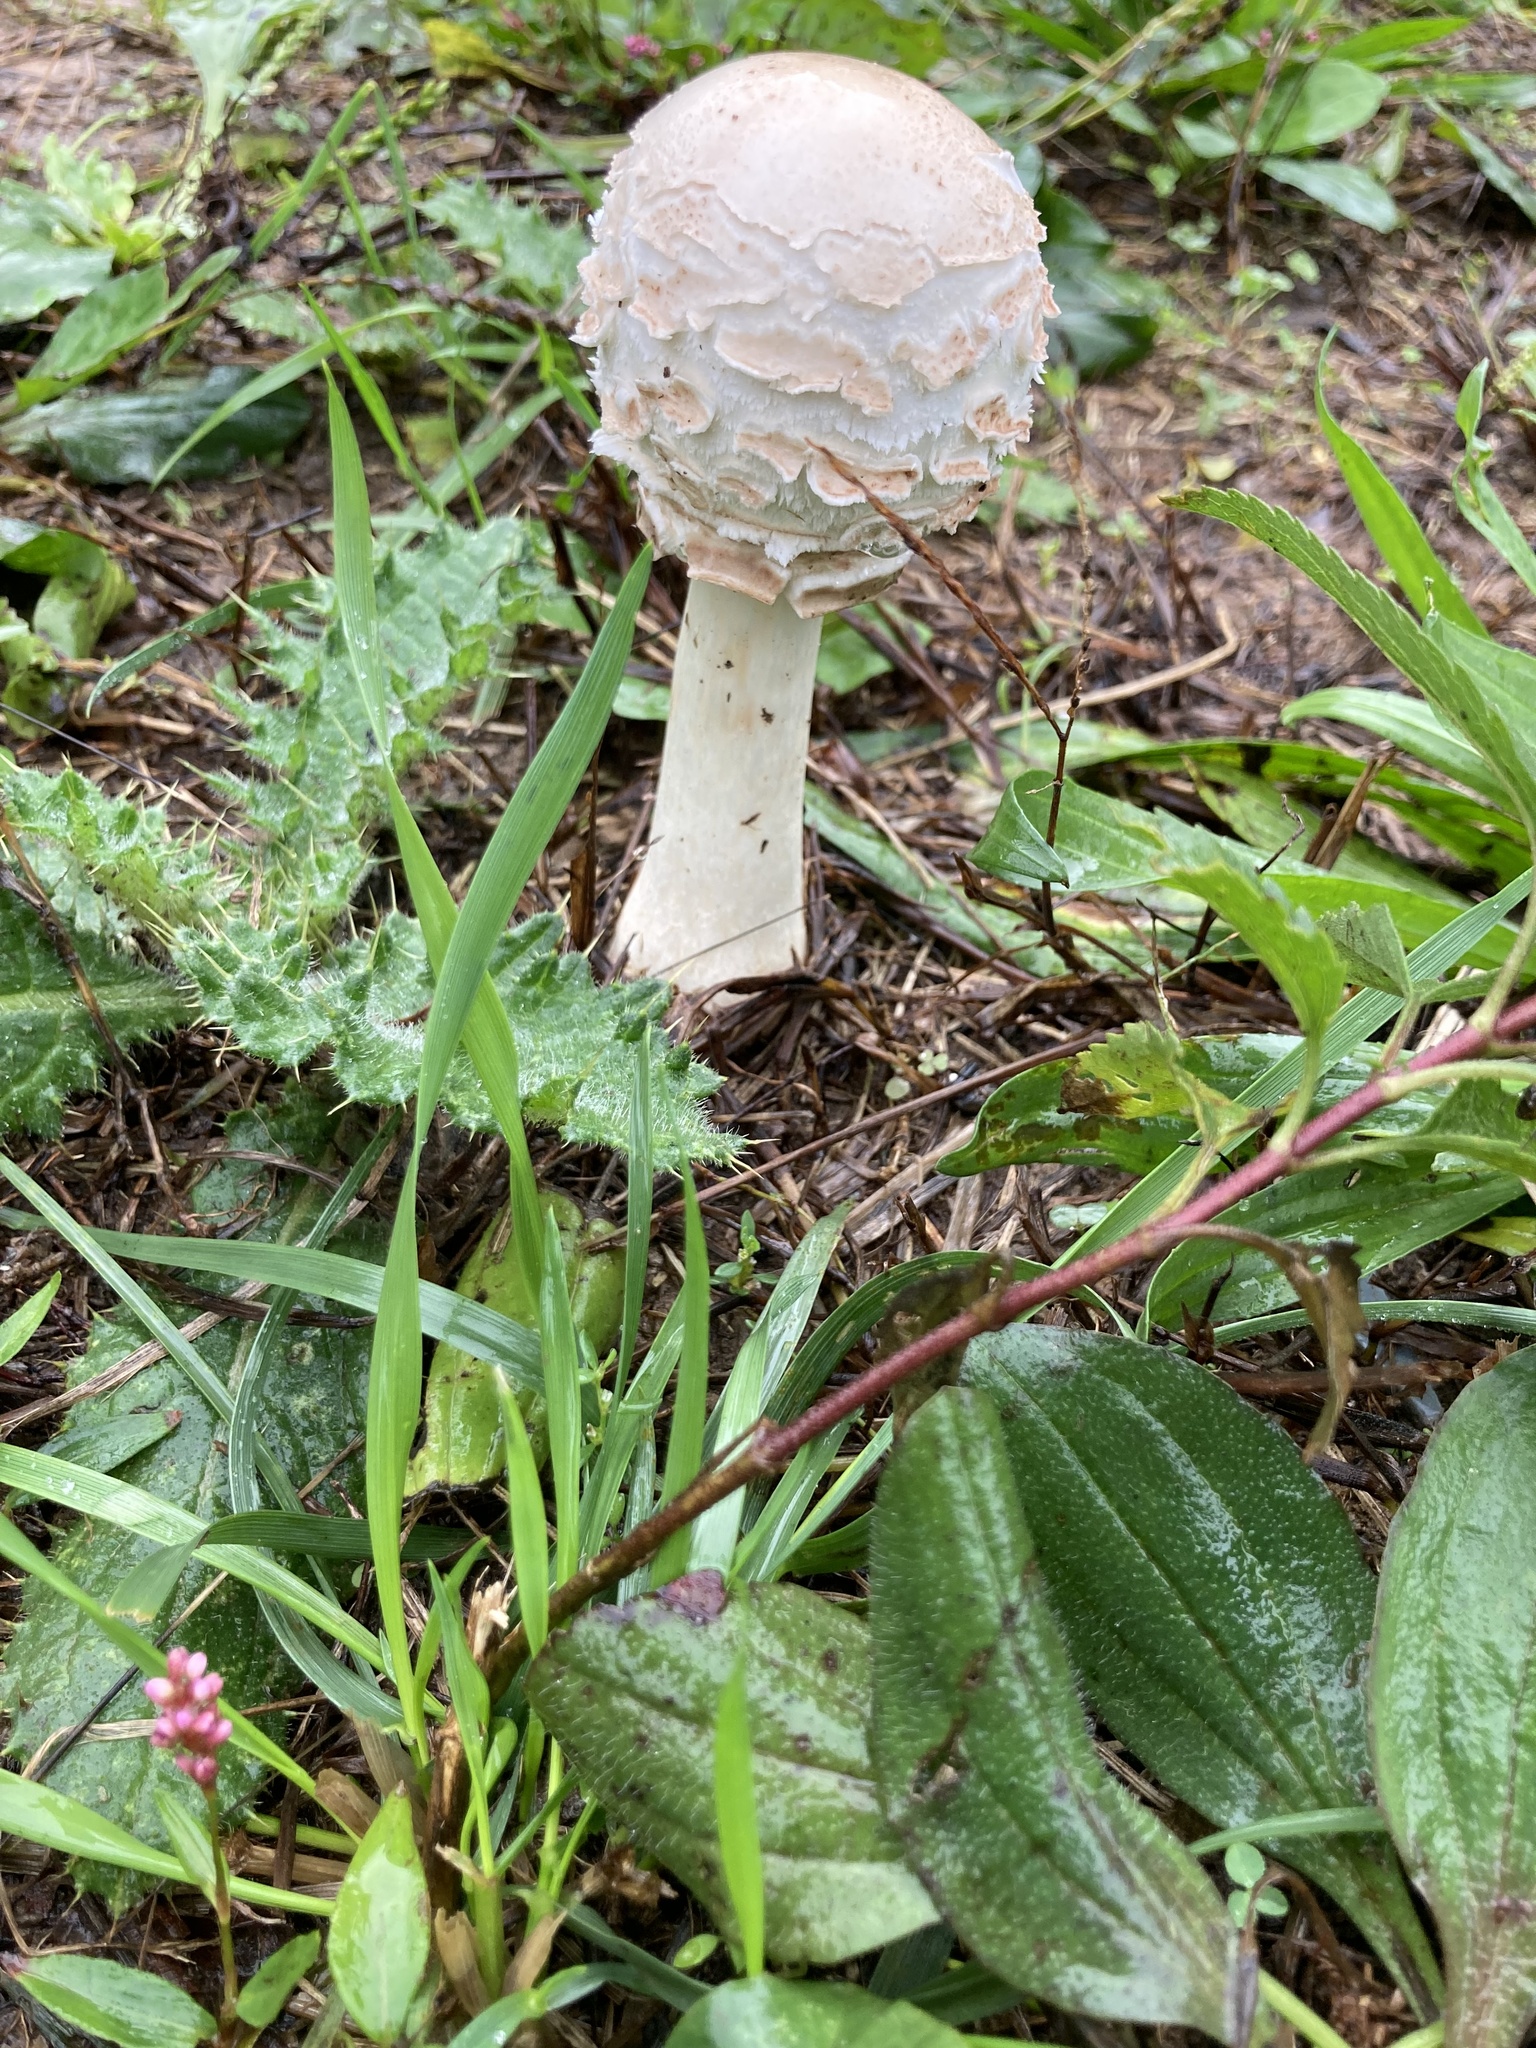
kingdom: Fungi
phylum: Basidiomycota
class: Agaricomycetes
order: Agaricales
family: Agaricaceae
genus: Chlorophyllum
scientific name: Chlorophyllum molybdites
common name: False parasol
